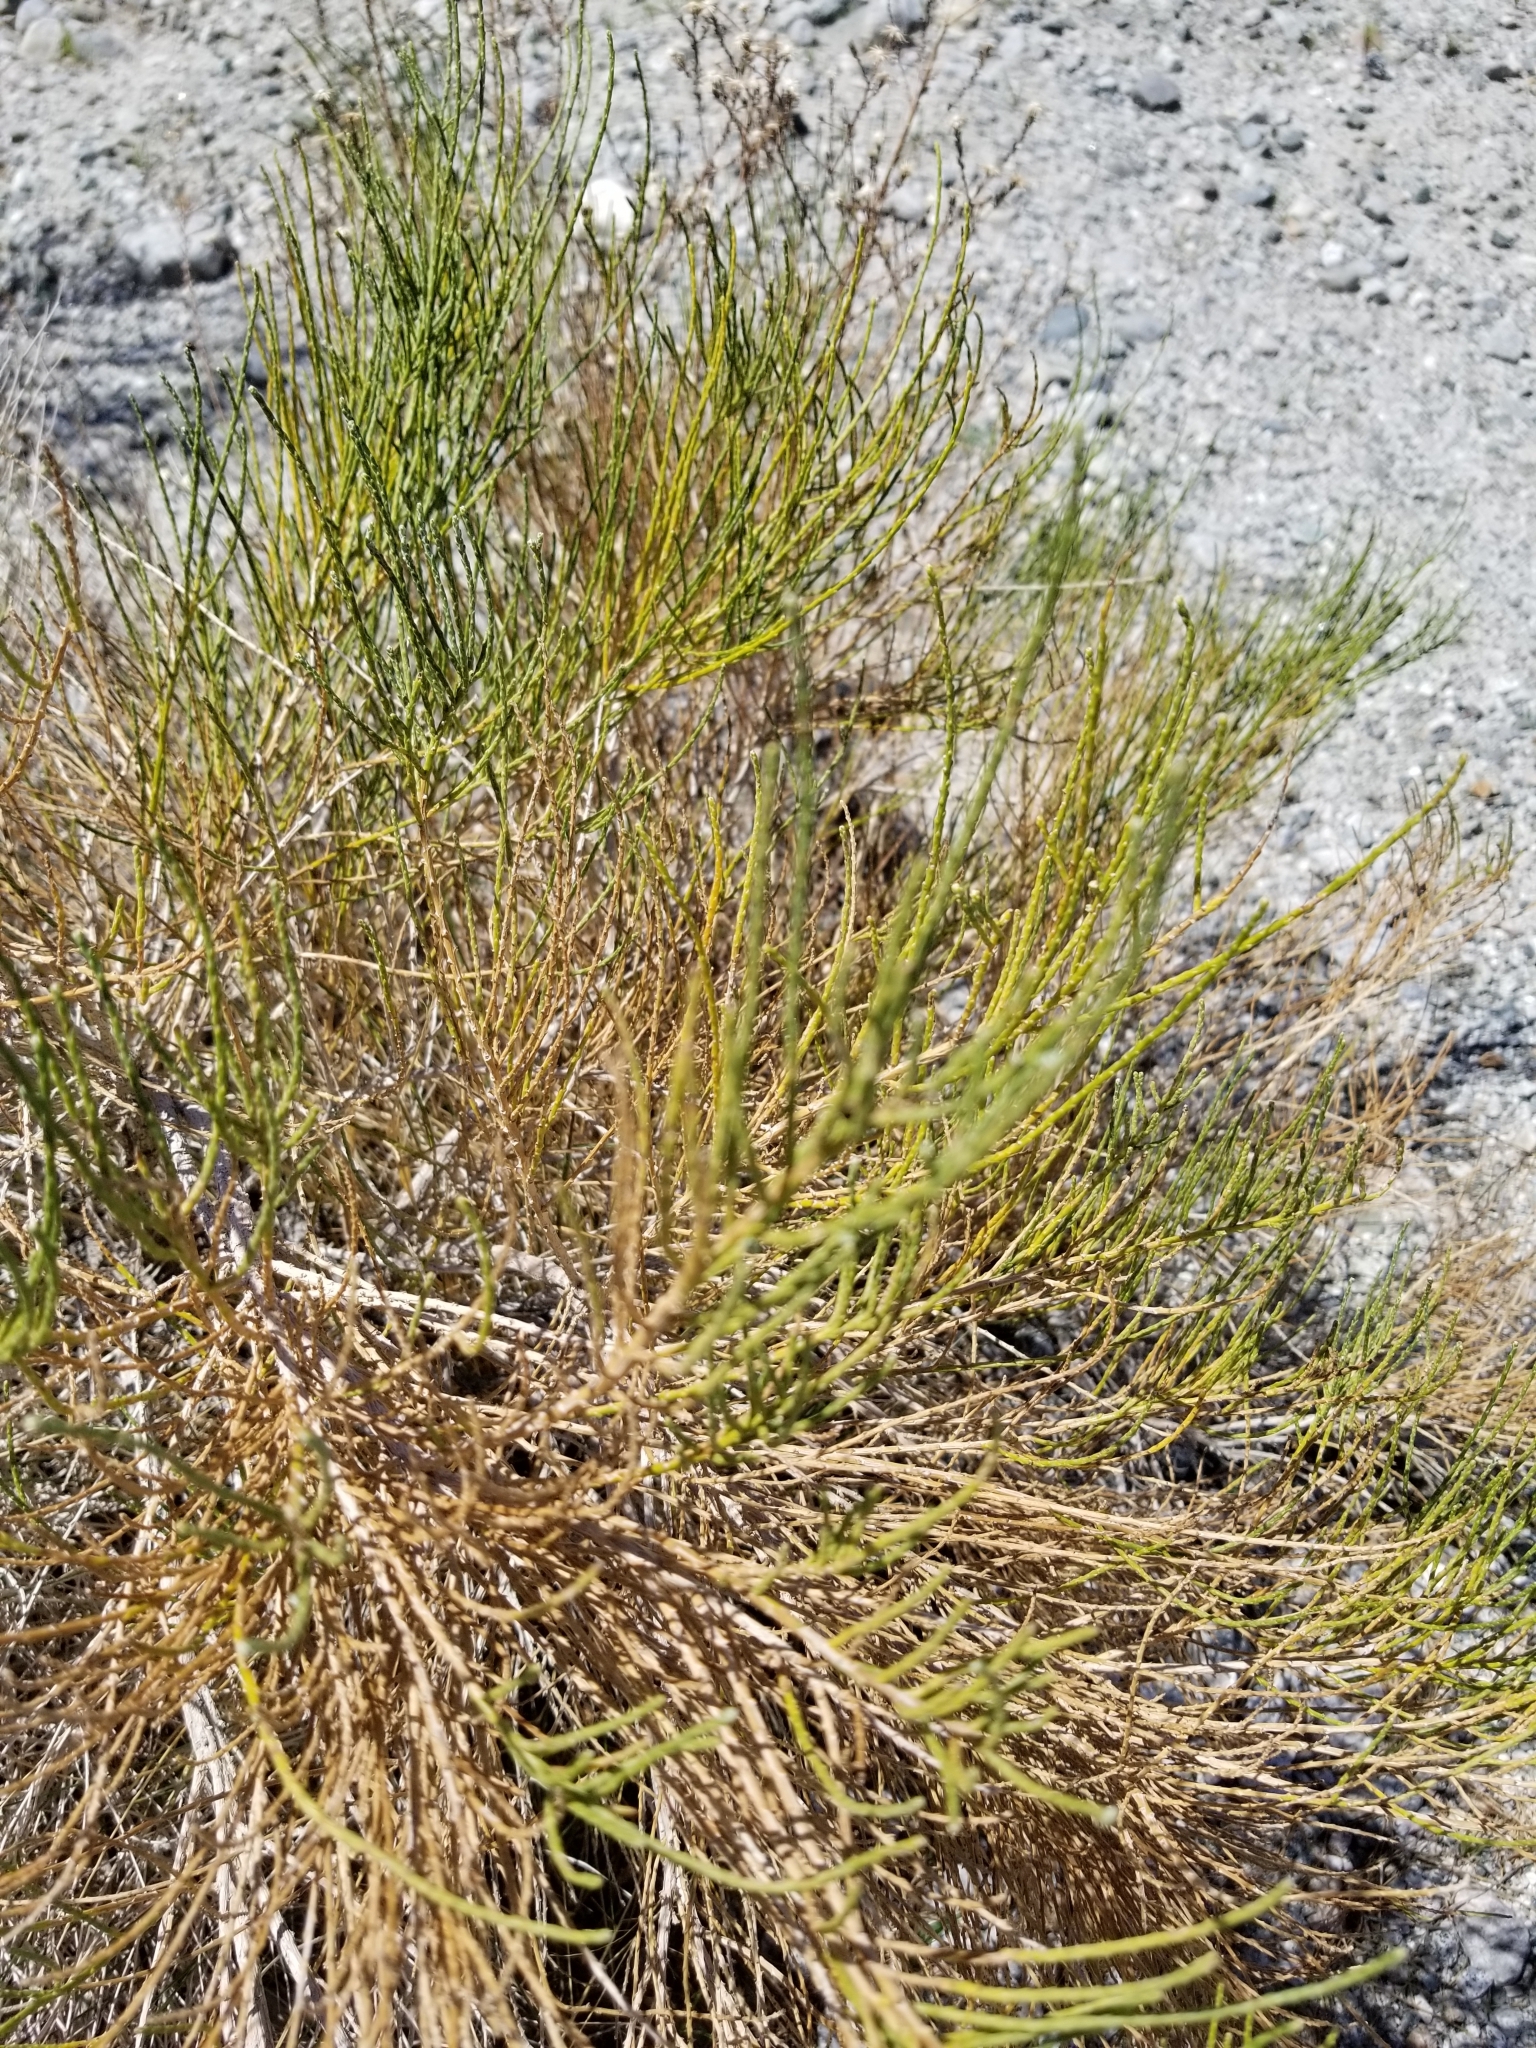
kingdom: Plantae
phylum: Tracheophyta
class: Magnoliopsida
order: Asterales
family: Asteraceae
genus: Lepidospartum
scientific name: Lepidospartum squamatum
